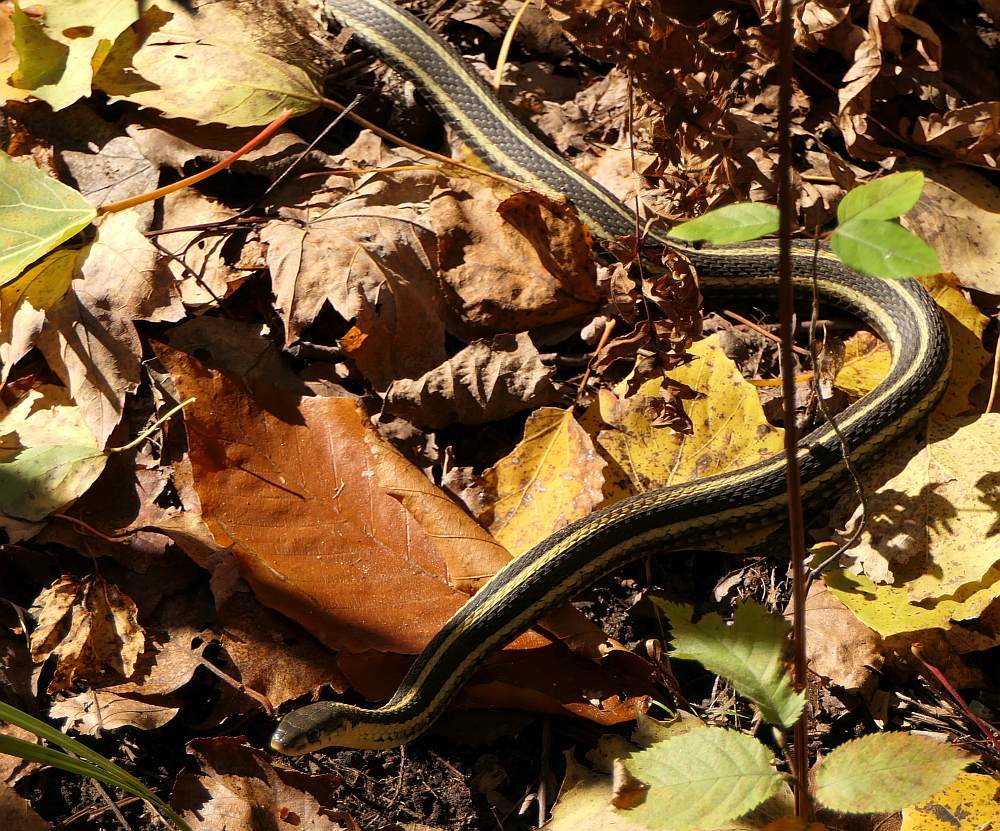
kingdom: Animalia
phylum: Chordata
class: Squamata
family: Colubridae
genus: Thamnophis
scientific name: Thamnophis sirtalis
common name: Common garter snake
